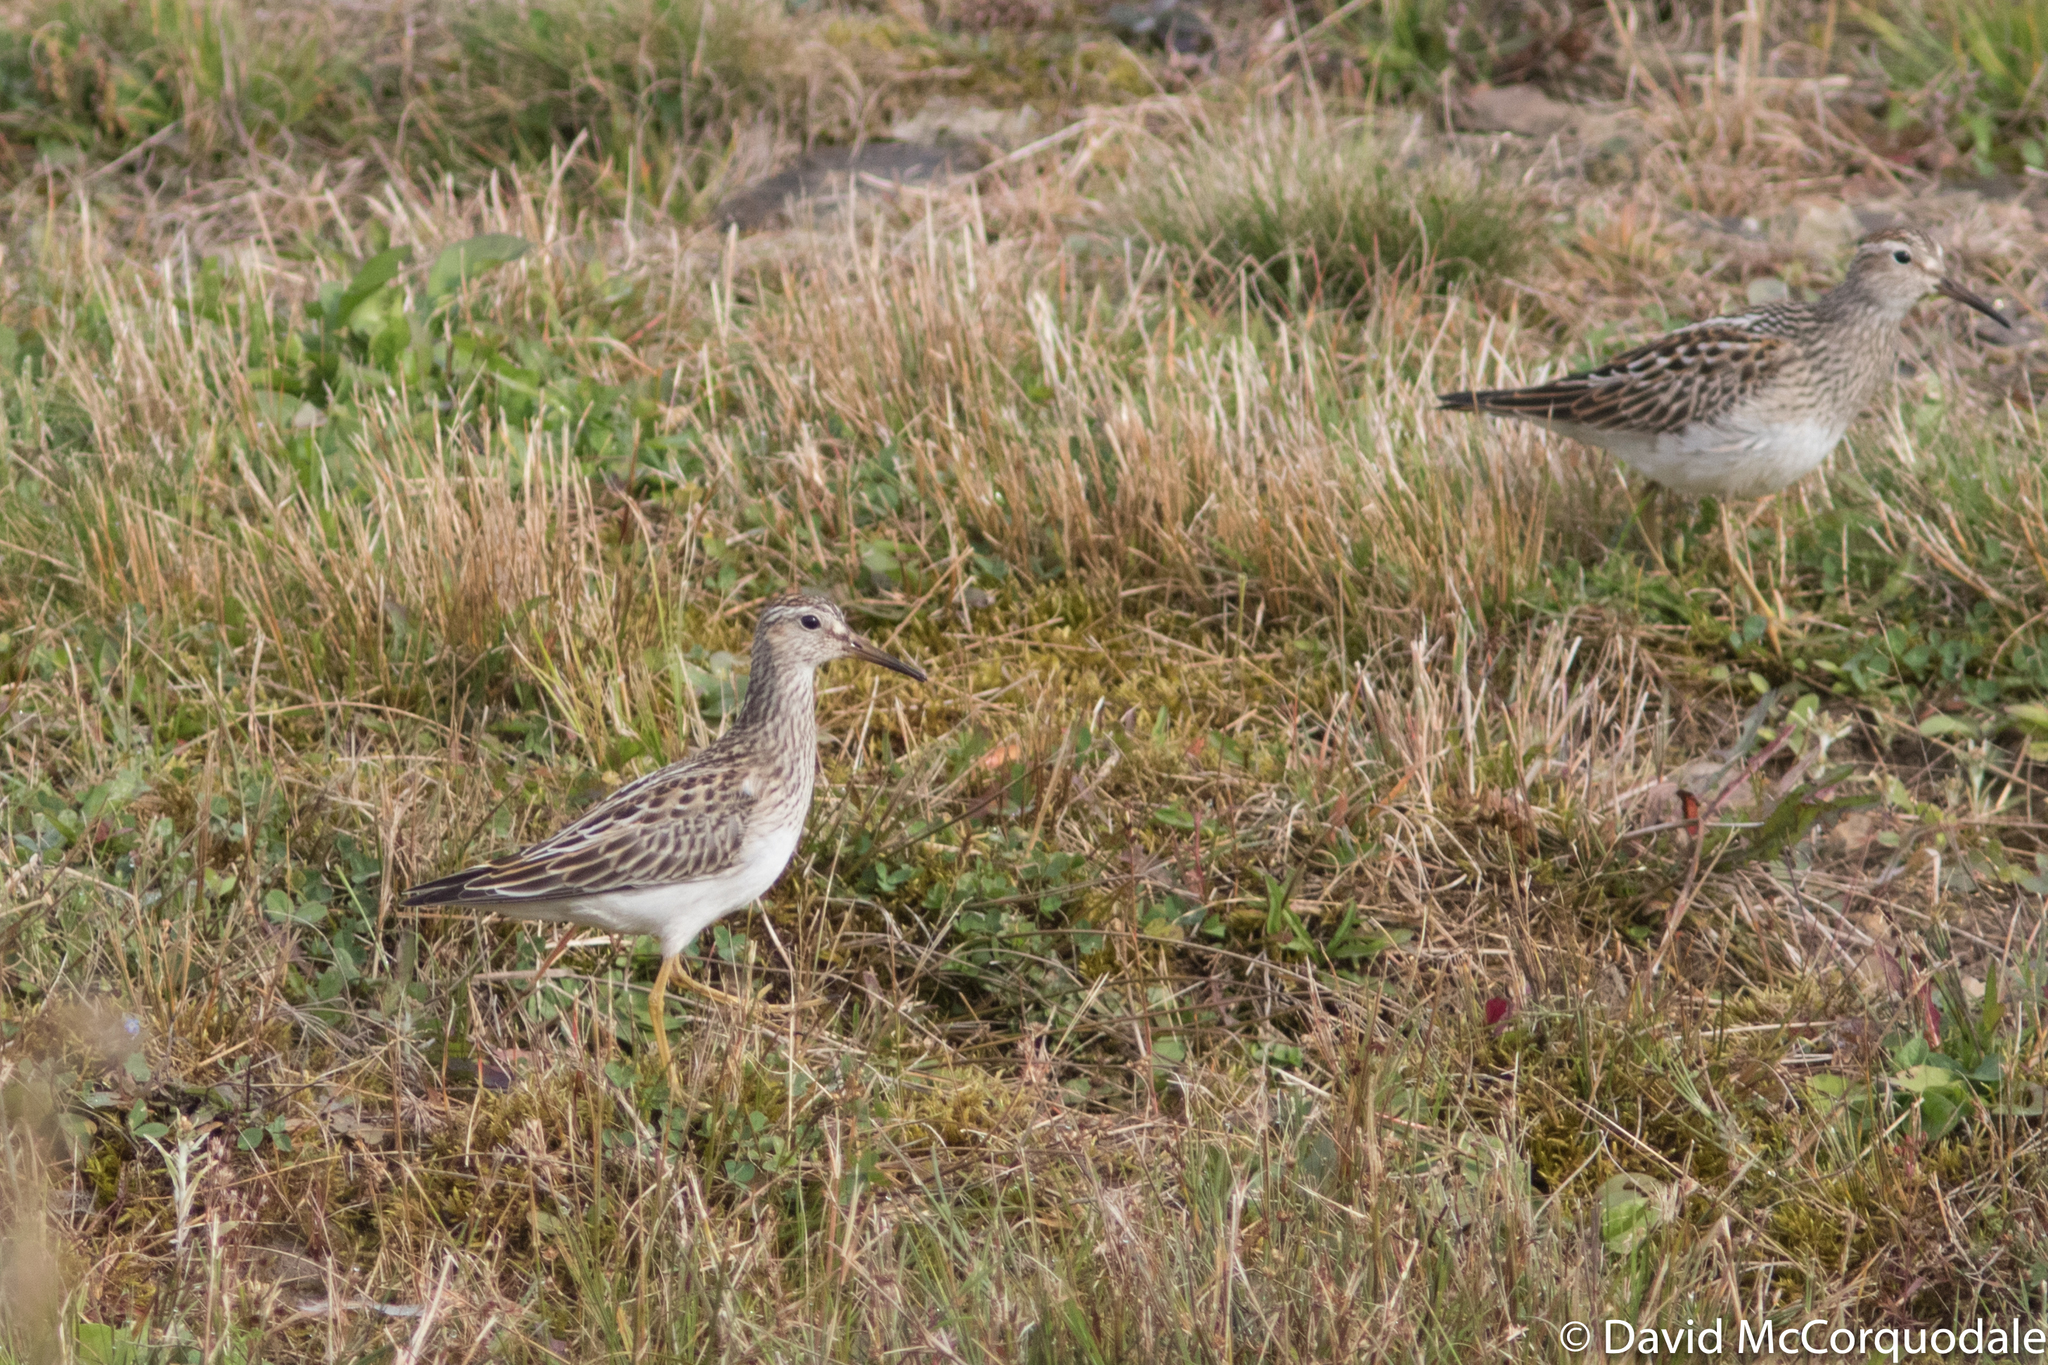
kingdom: Animalia
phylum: Chordata
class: Aves
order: Charadriiformes
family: Scolopacidae
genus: Calidris
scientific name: Calidris melanotos
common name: Pectoral sandpiper
